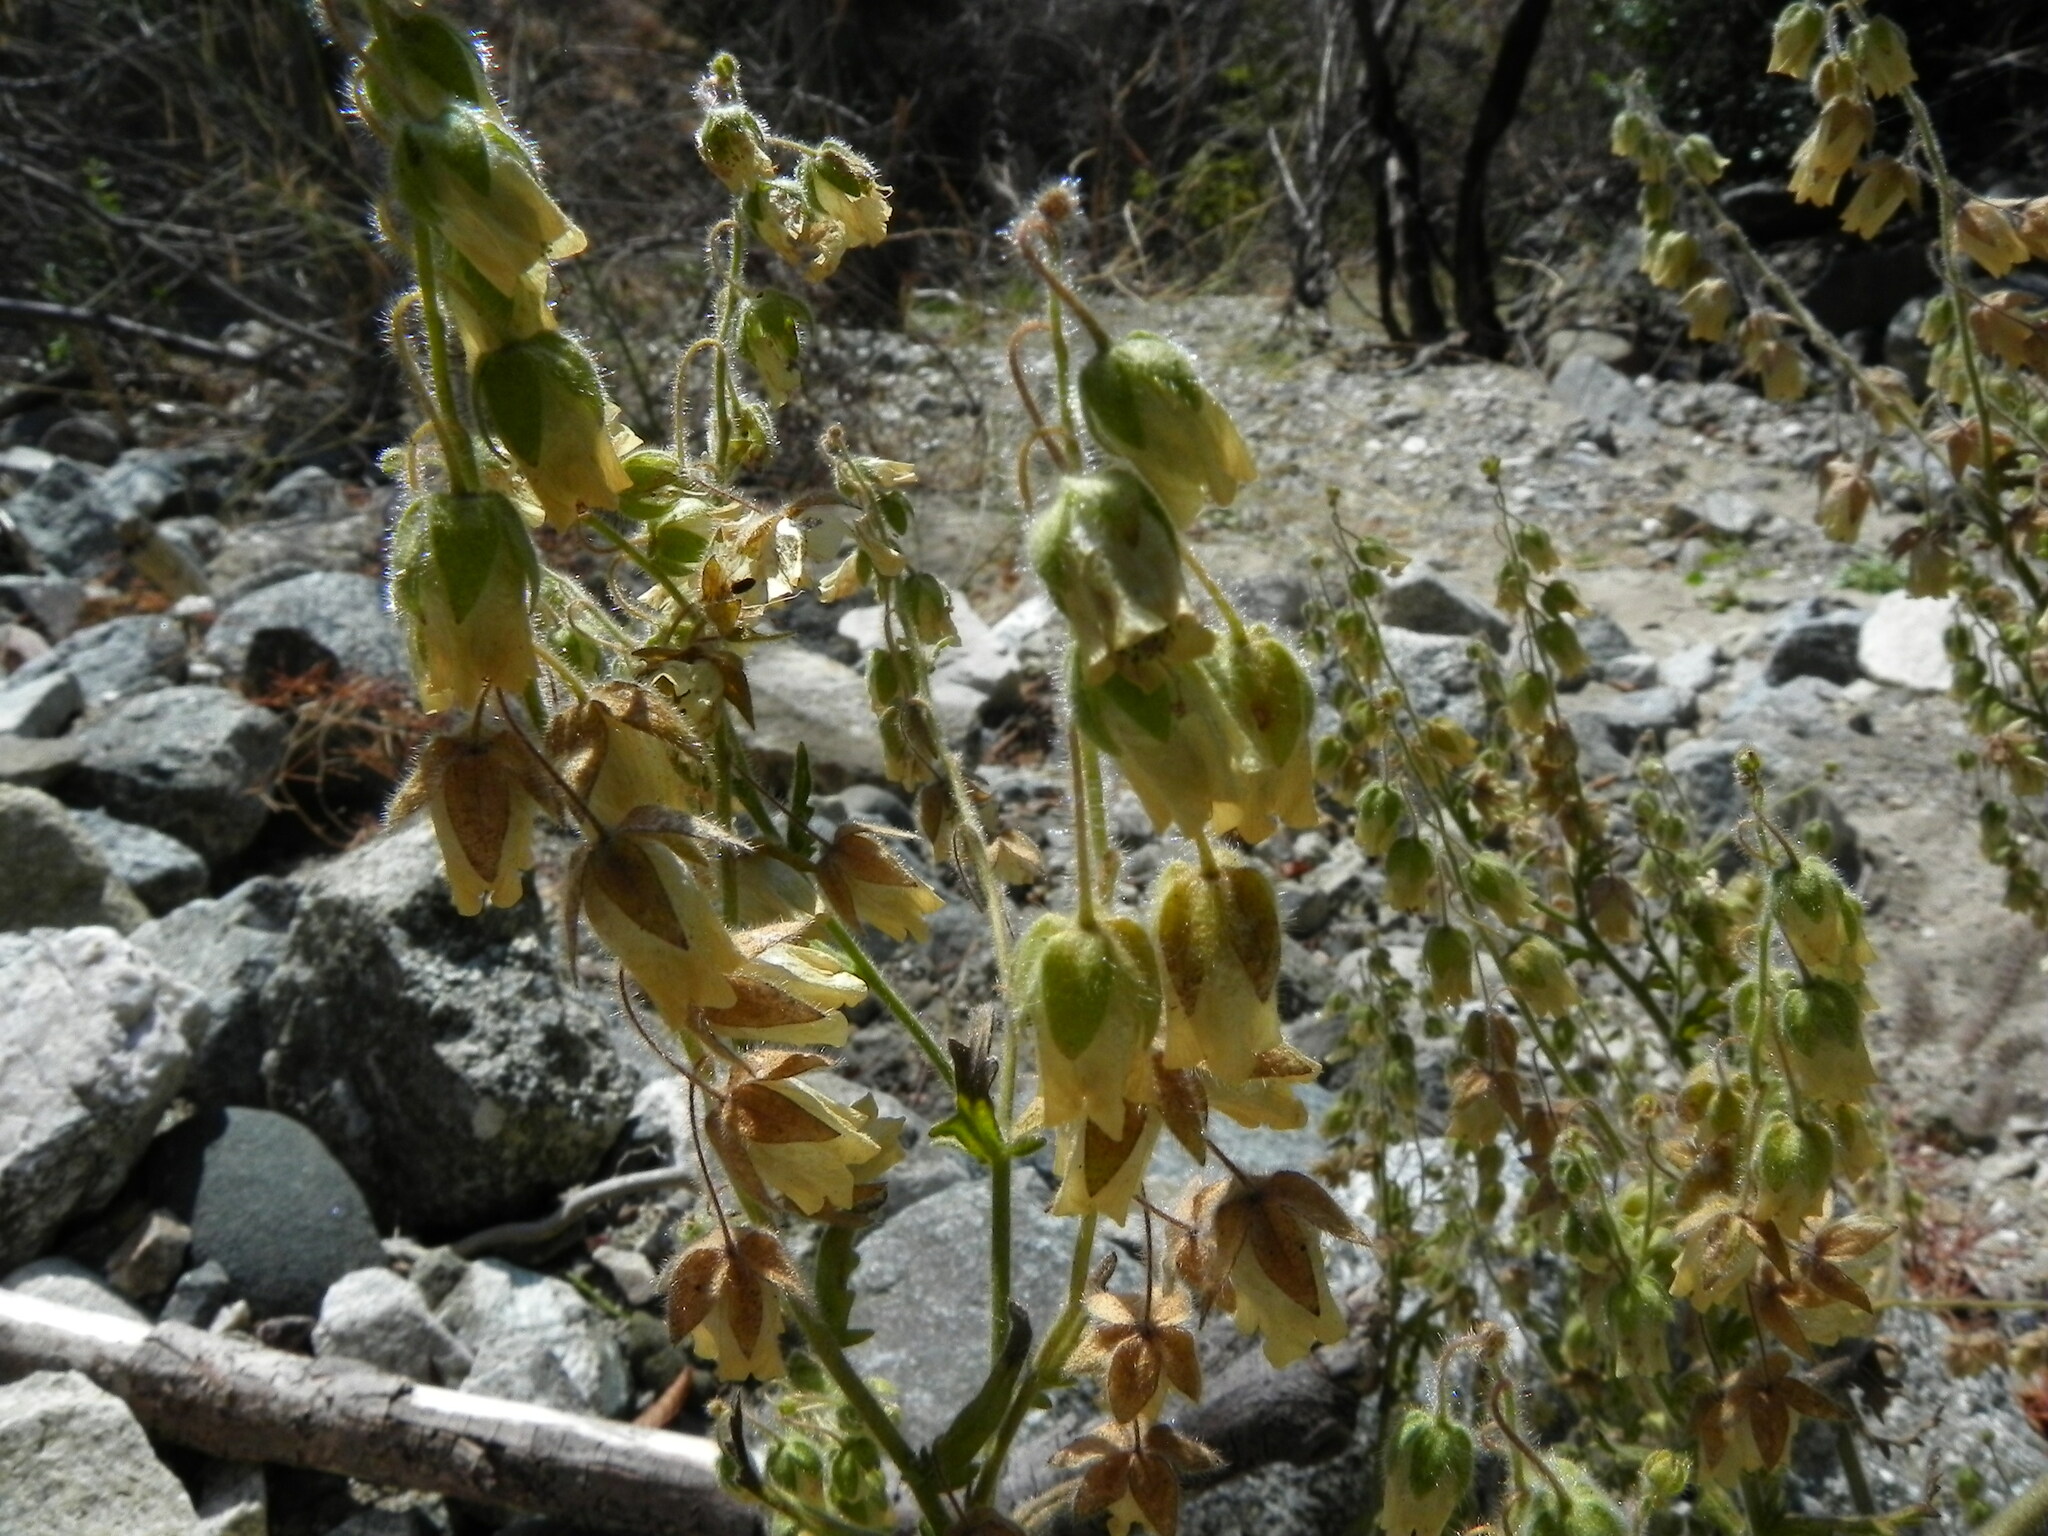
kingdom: Plantae
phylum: Tracheophyta
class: Magnoliopsida
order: Boraginales
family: Hydrophyllaceae
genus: Emmenanthe
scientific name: Emmenanthe penduliflora
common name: Whispering-bells
